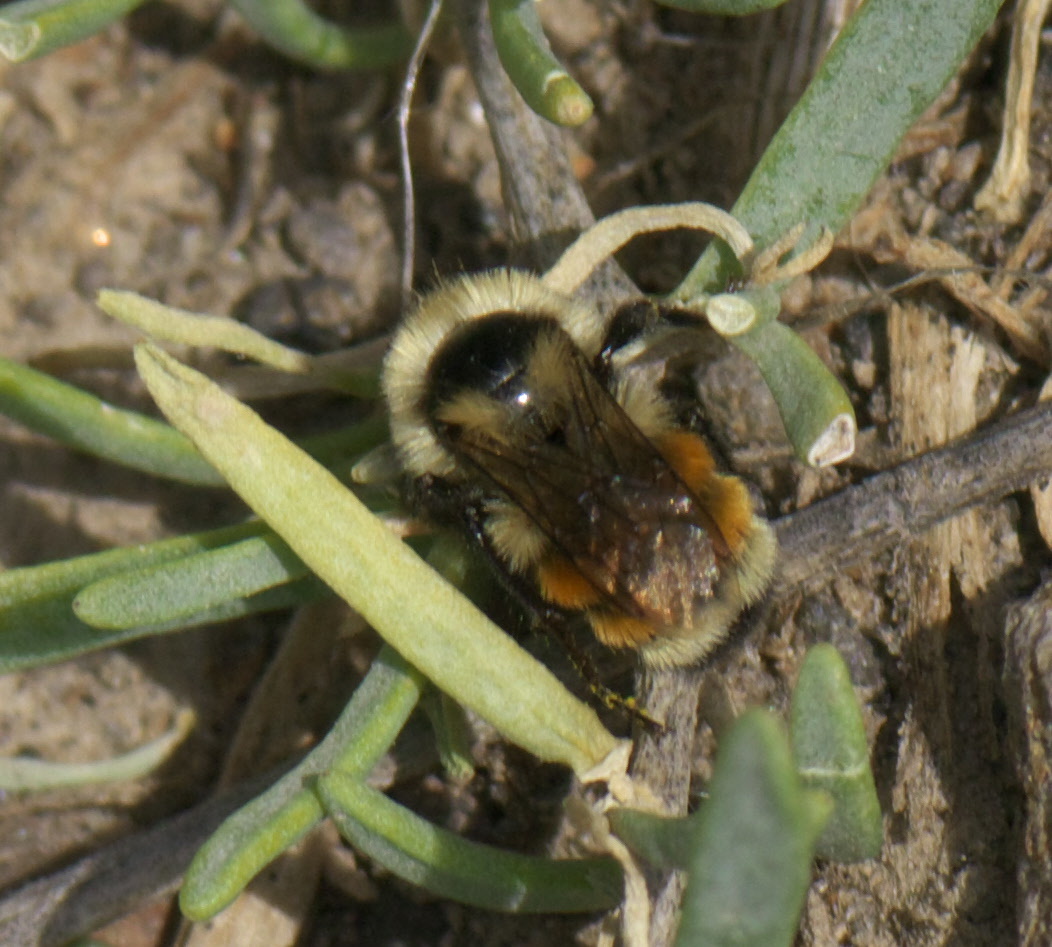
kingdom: Animalia
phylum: Arthropoda
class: Insecta
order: Hymenoptera
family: Apidae
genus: Pyrobombus
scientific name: Pyrobombus
